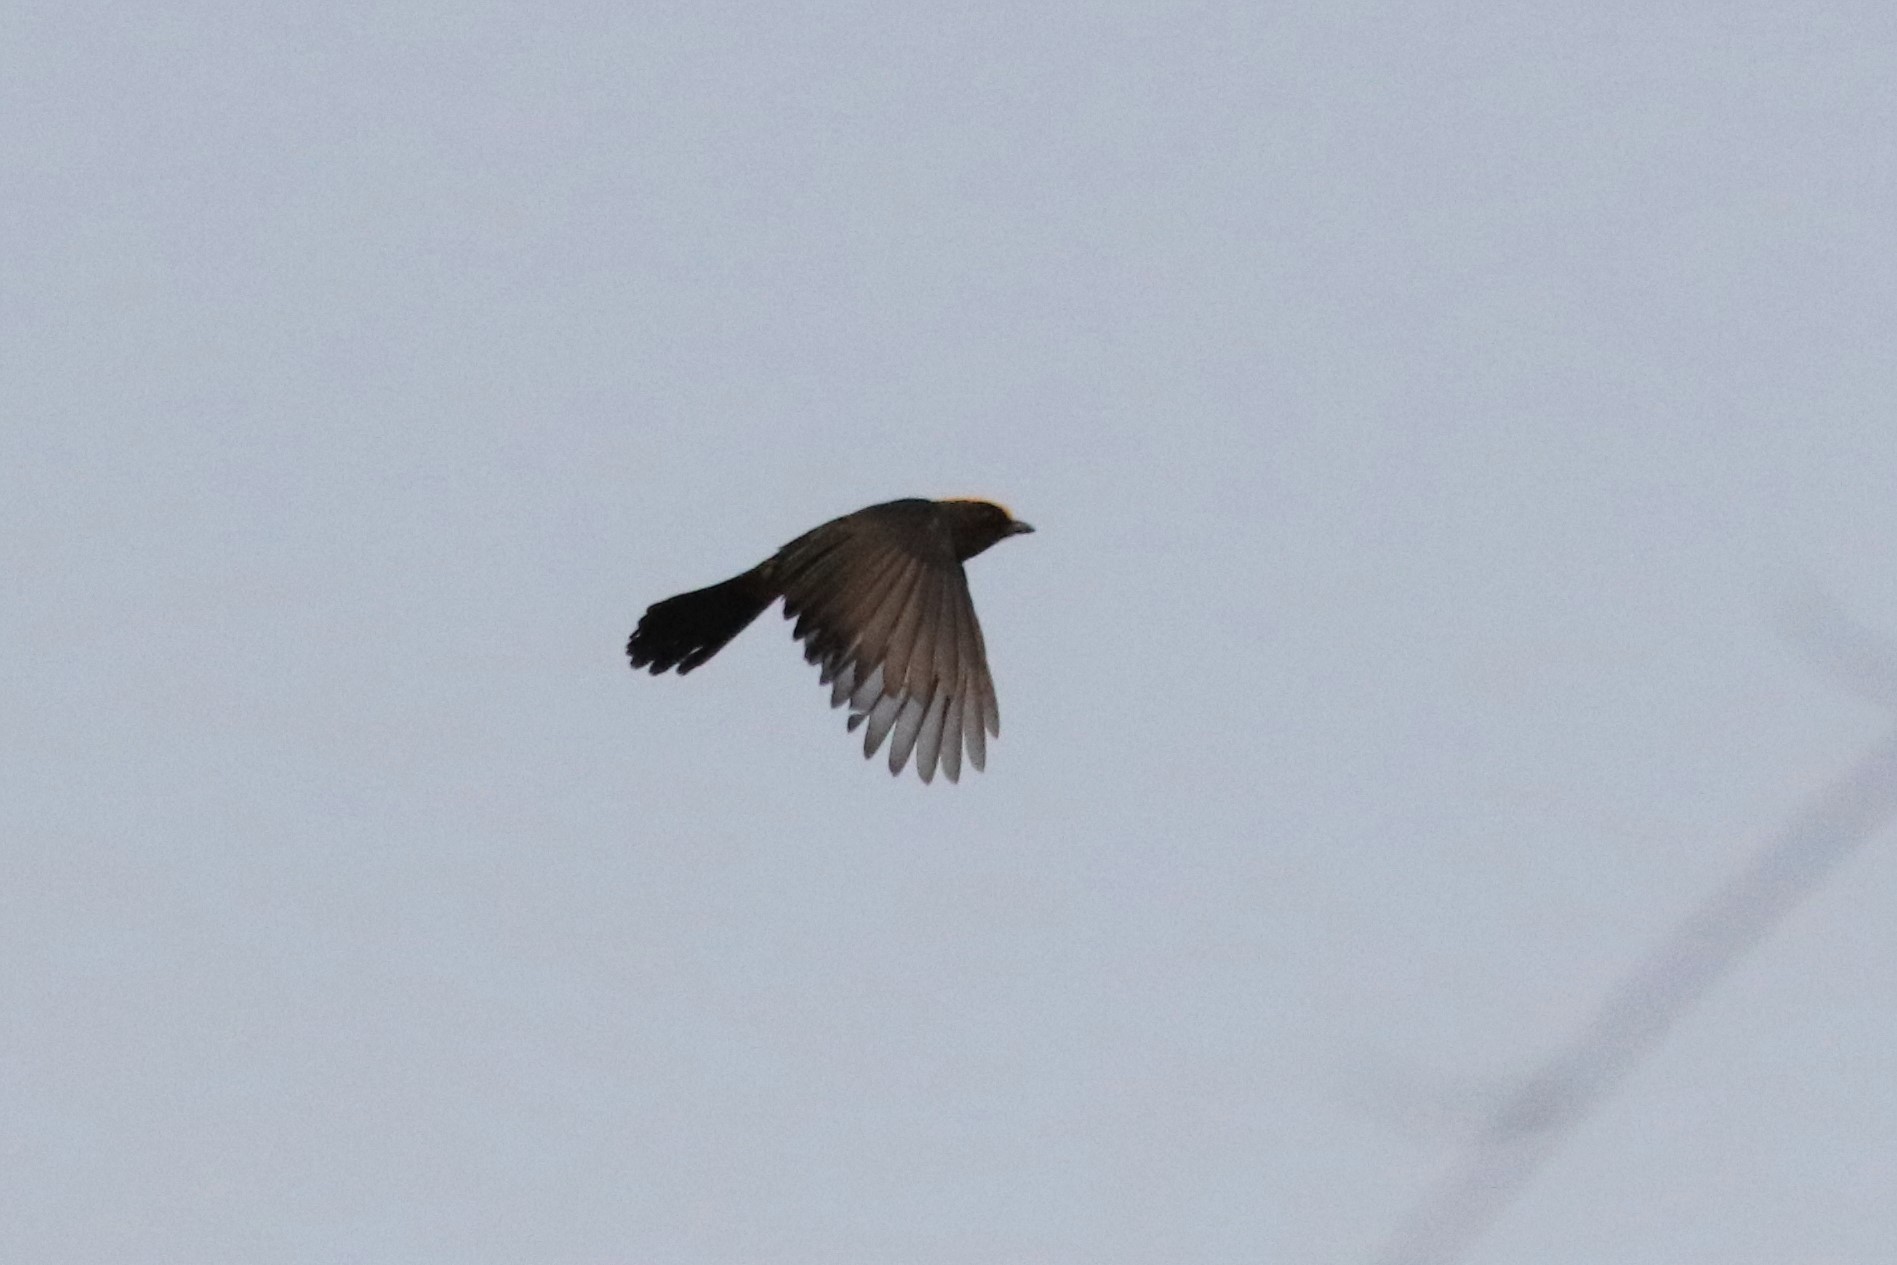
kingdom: Animalia
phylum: Chordata
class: Aves
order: Passeriformes
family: Pycnonotidae
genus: Iole
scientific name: Iole viridescens
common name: Olive bulbul
